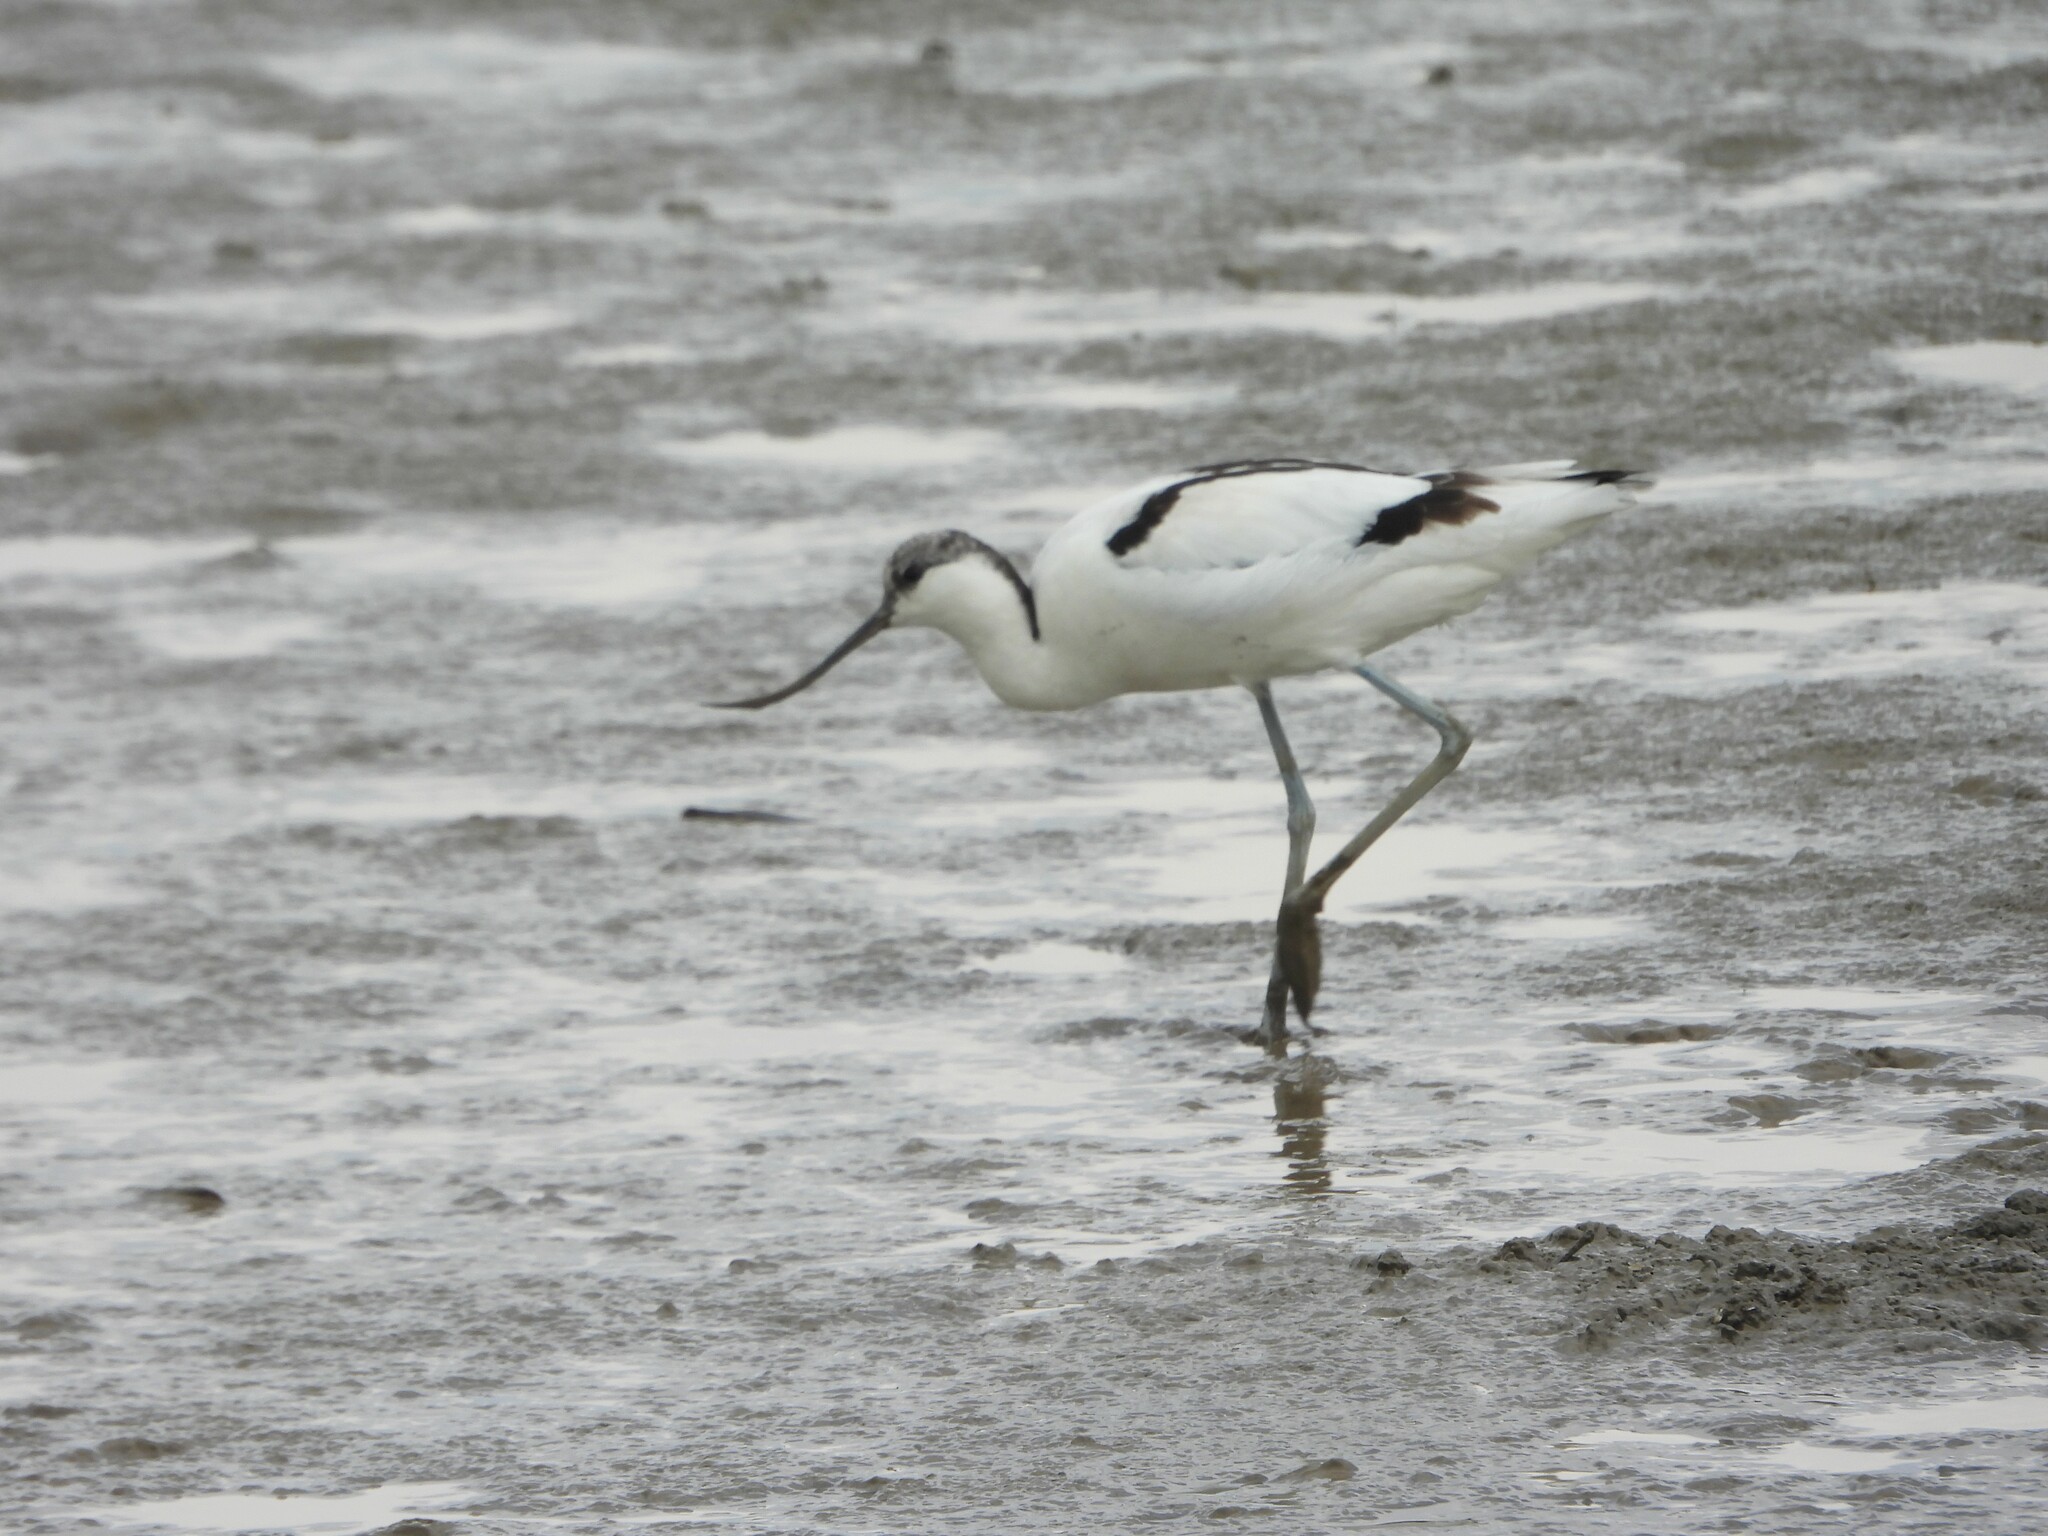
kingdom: Animalia
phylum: Chordata
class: Aves
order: Charadriiformes
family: Recurvirostridae
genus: Recurvirostra
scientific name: Recurvirostra avosetta
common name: Pied avocet
